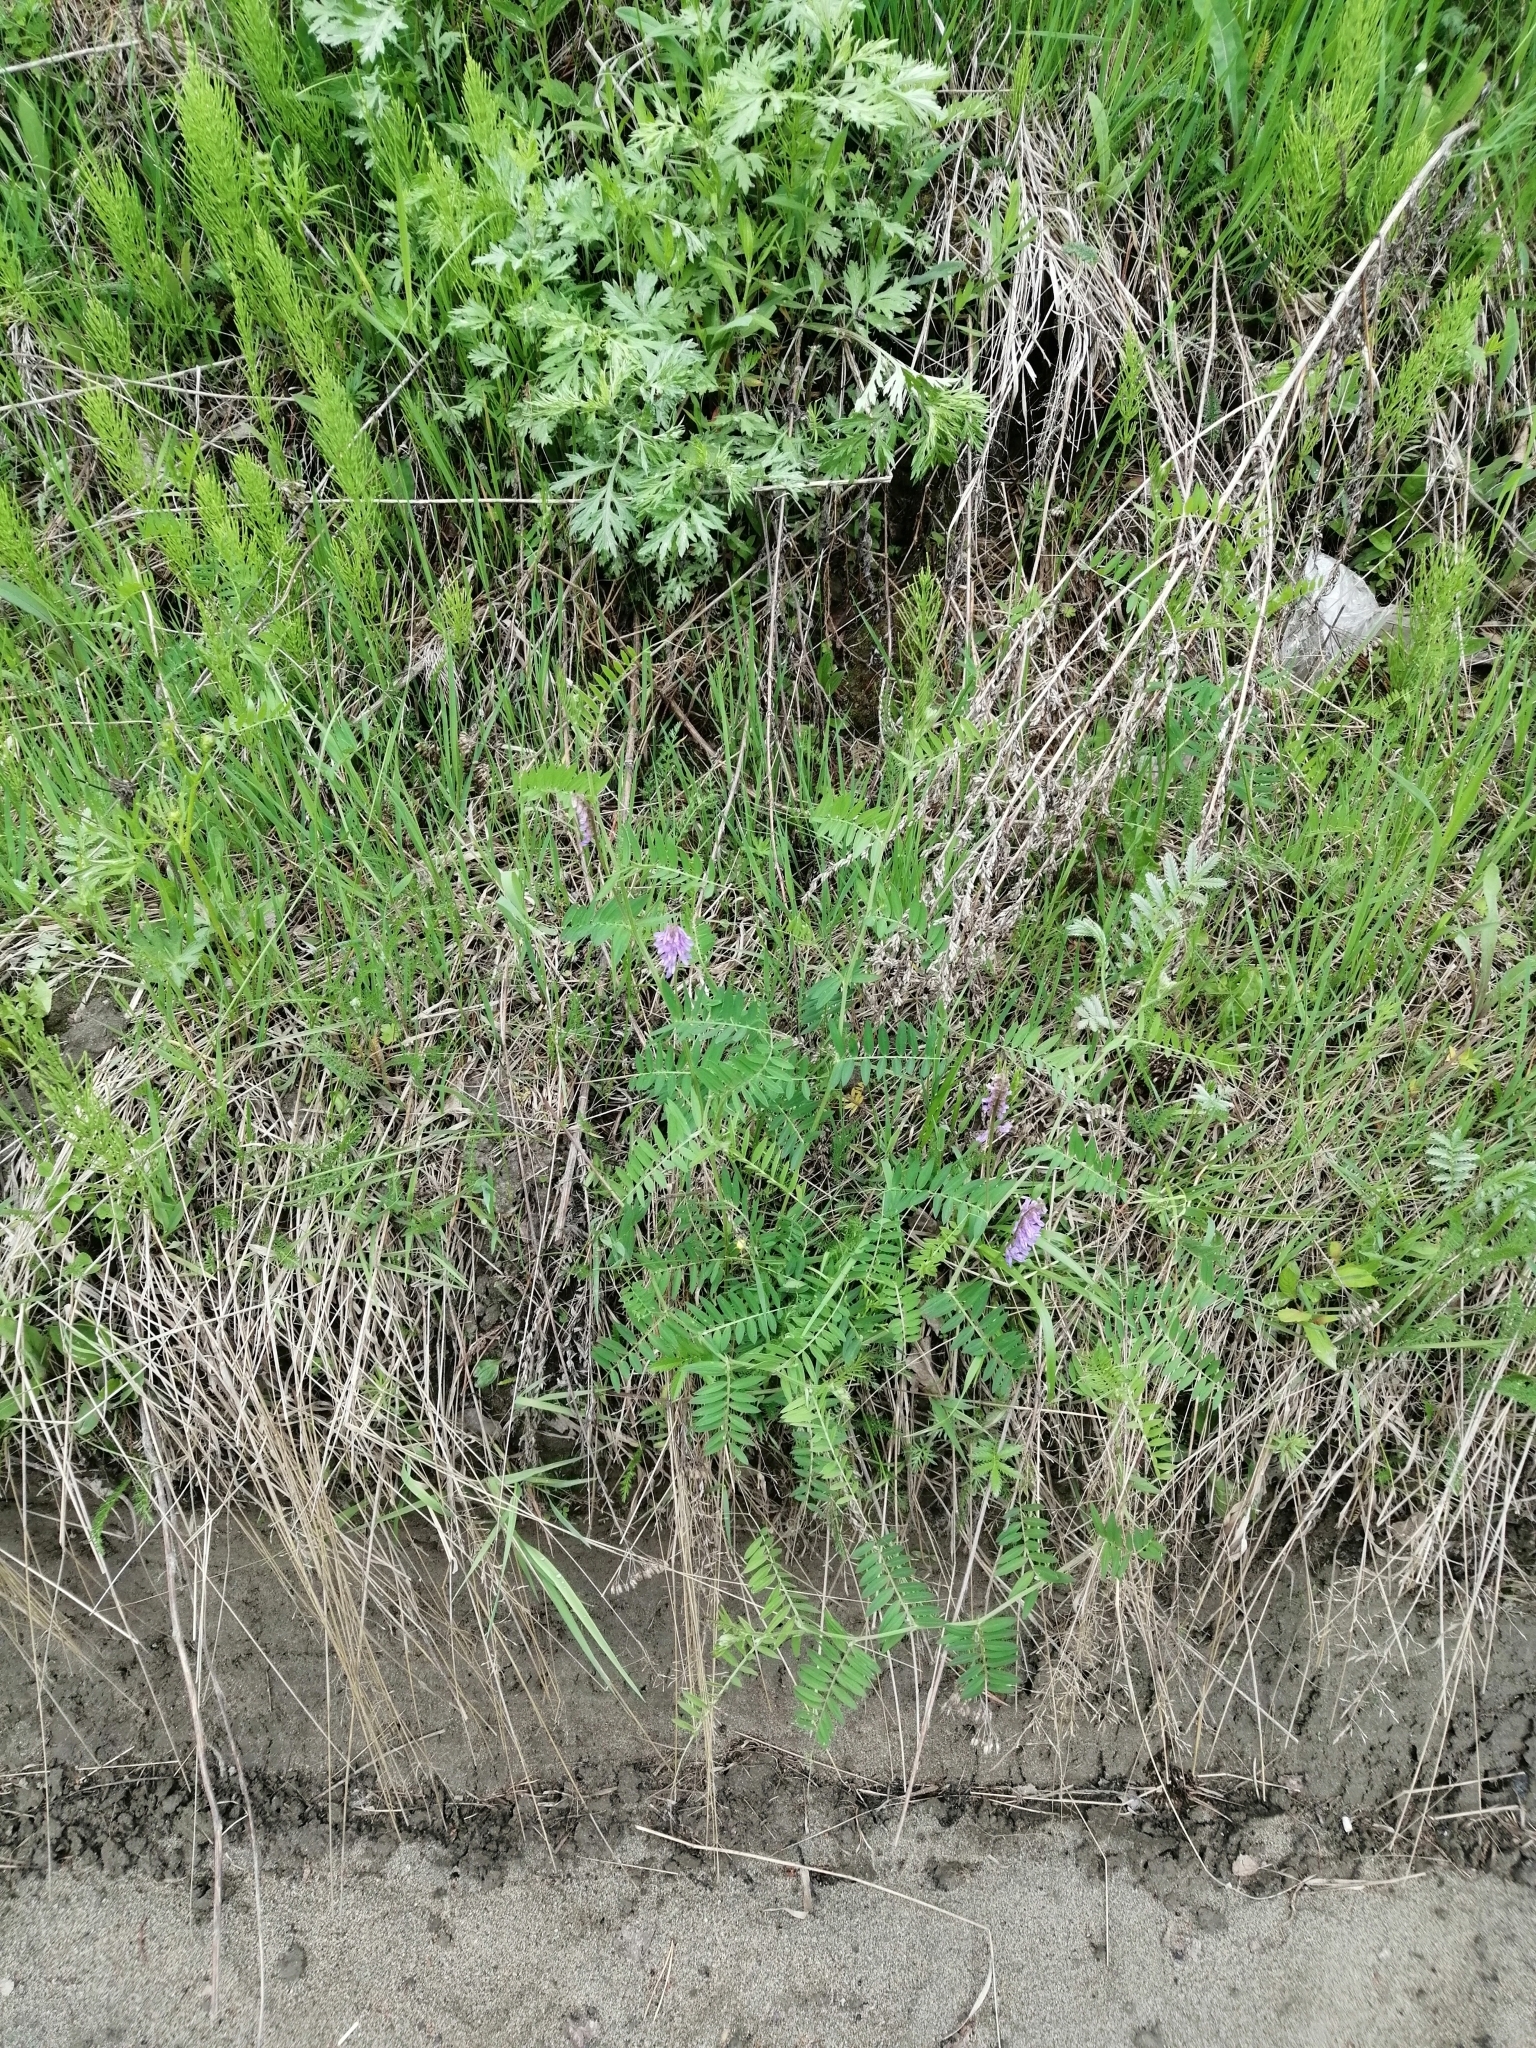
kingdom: Plantae
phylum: Tracheophyta
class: Magnoliopsida
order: Fabales
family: Fabaceae
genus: Vicia
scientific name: Vicia cracca
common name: Bird vetch
